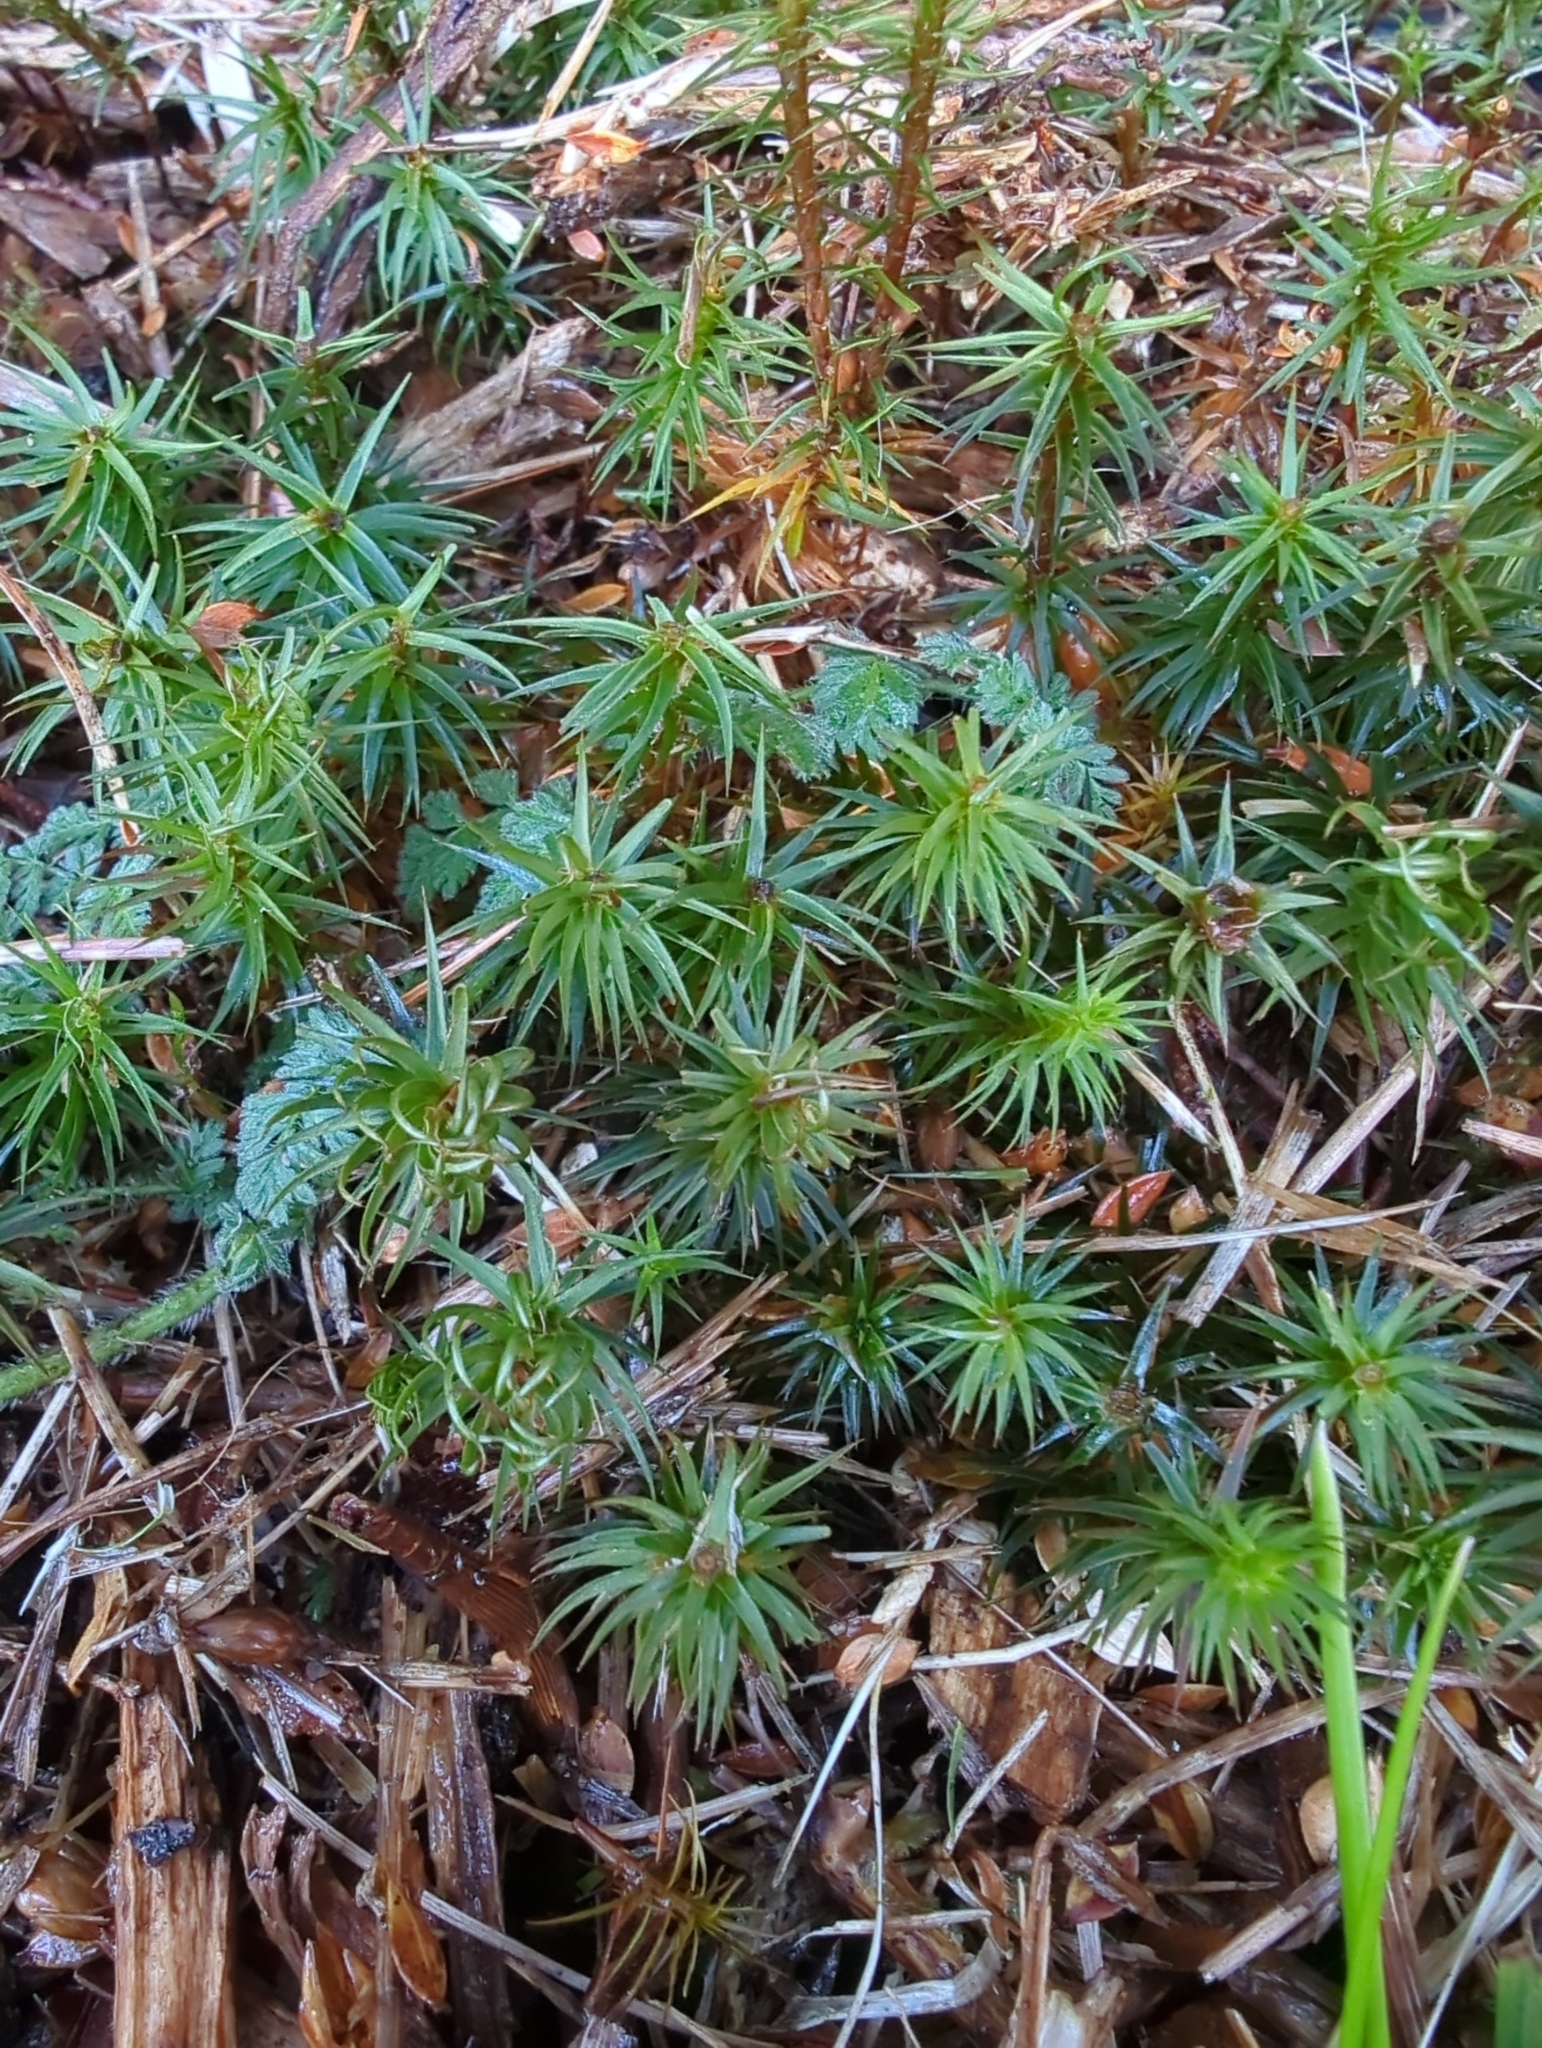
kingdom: Plantae
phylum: Bryophyta
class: Polytrichopsida
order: Polytrichales
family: Polytrichaceae
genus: Polytrichum
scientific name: Polytrichum commune
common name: Common haircap
